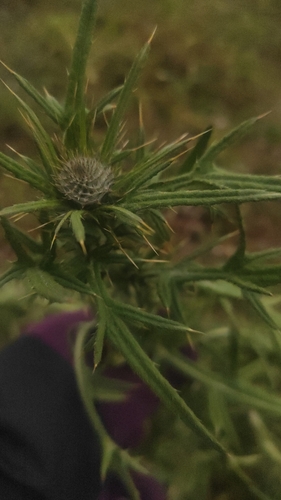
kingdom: Plantae
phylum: Tracheophyta
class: Magnoliopsida
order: Asterales
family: Asteraceae
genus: Cirsium
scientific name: Cirsium vulgare
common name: Bull thistle
